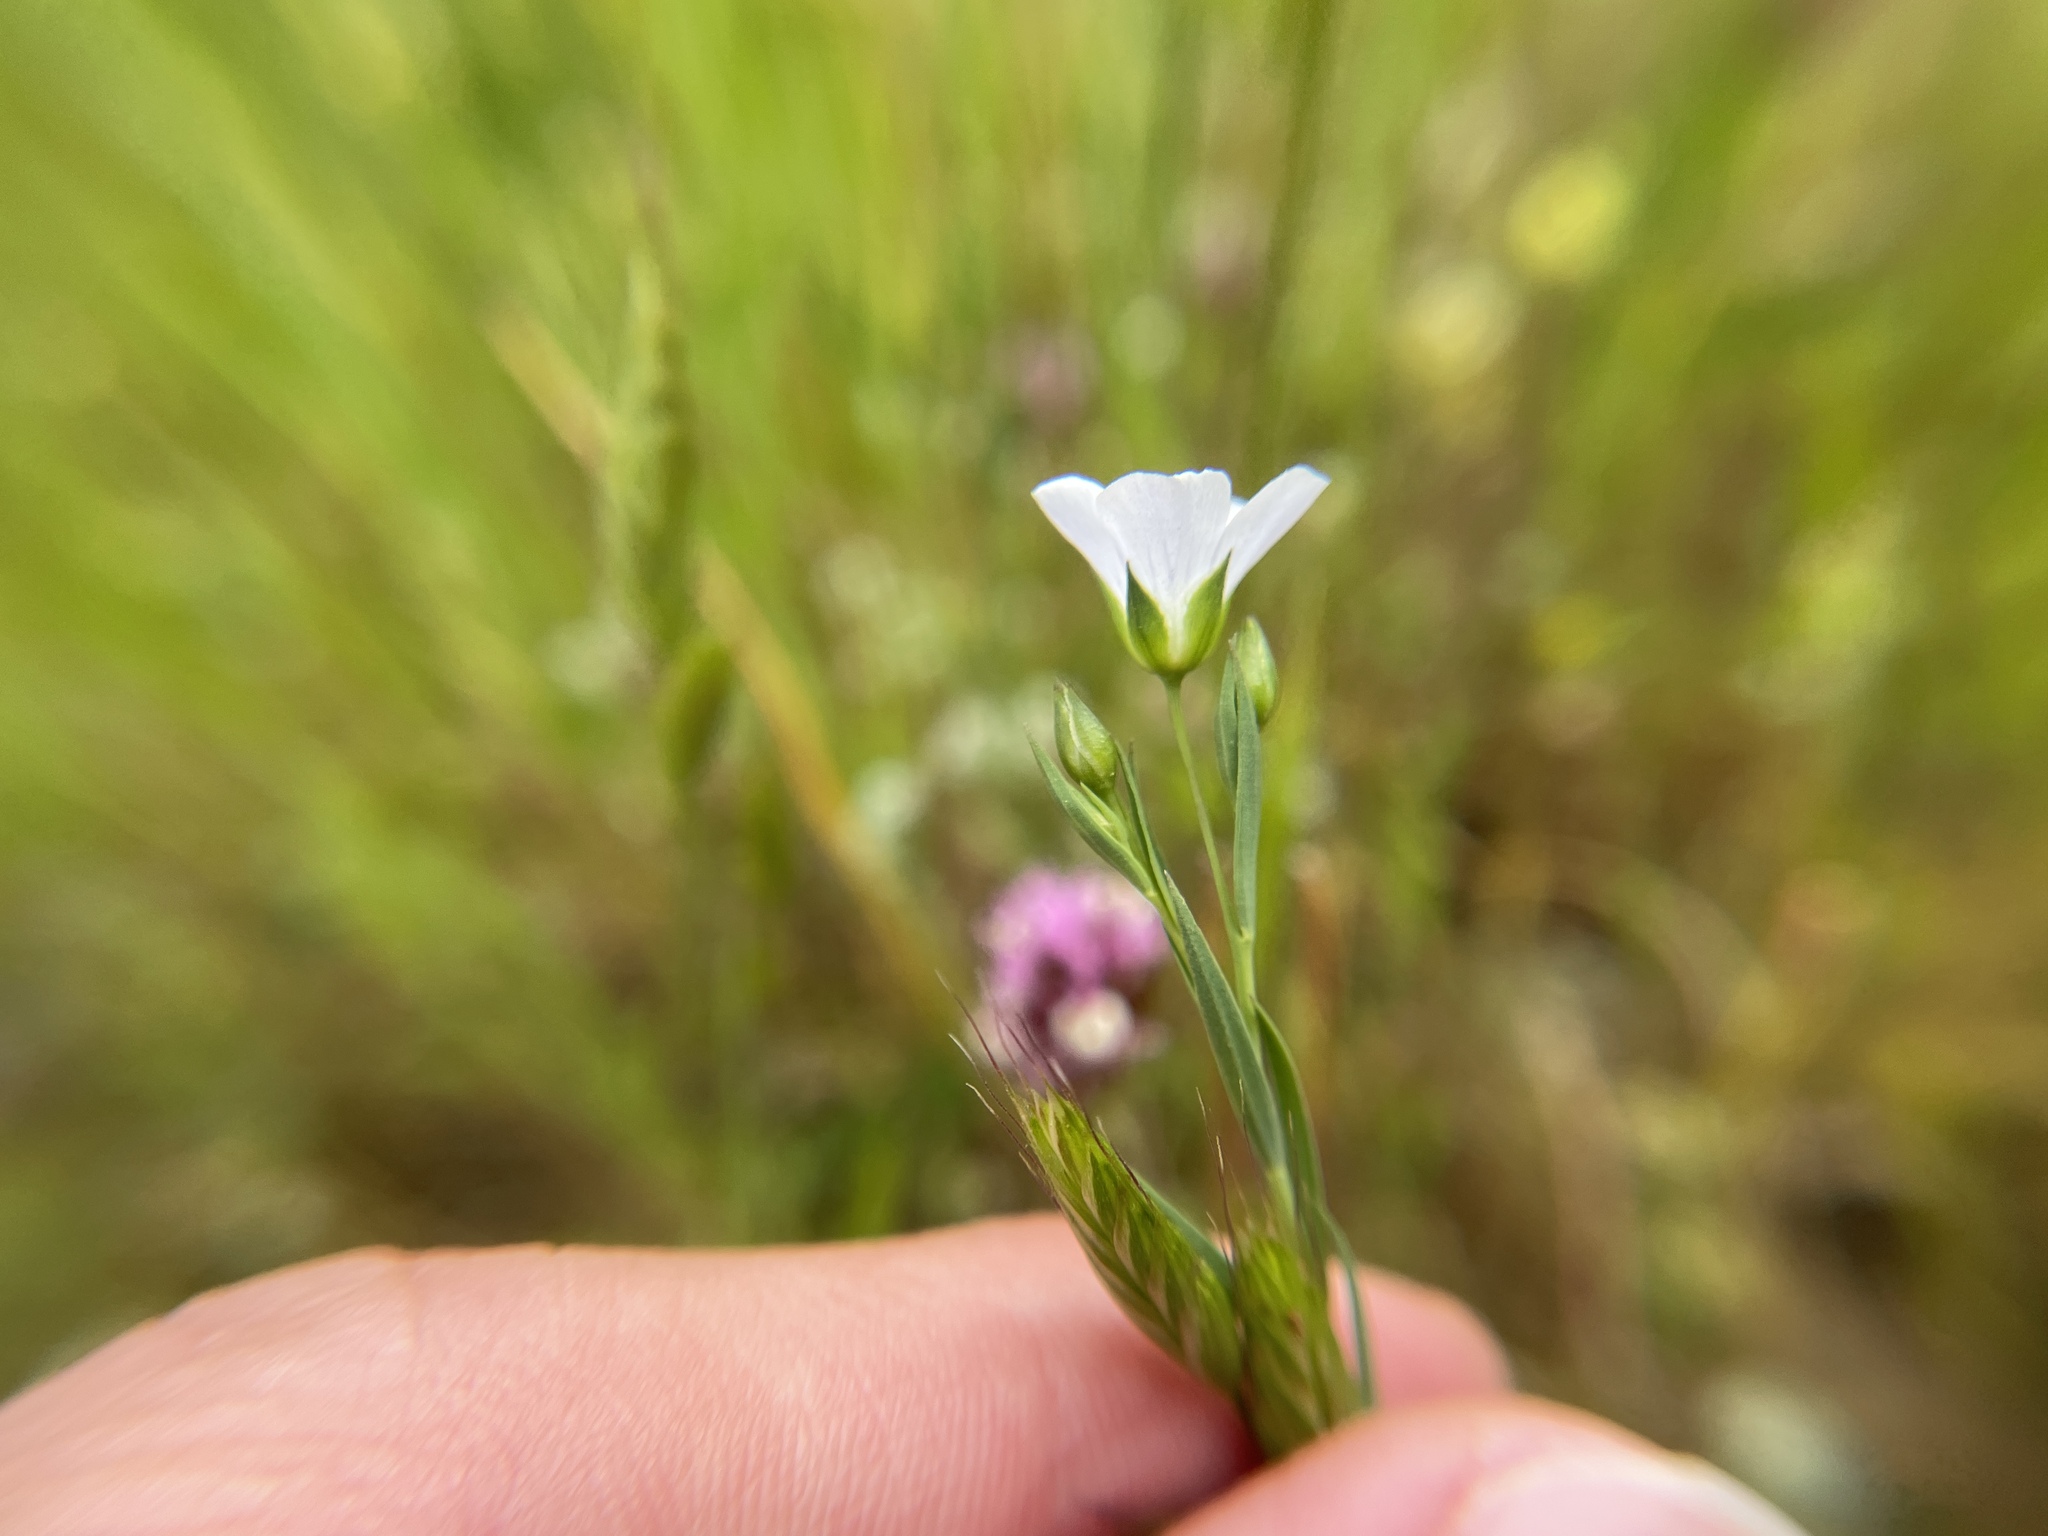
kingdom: Plantae
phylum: Tracheophyta
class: Magnoliopsida
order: Malpighiales
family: Linaceae
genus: Linum
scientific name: Linum bienne
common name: Pale flax
